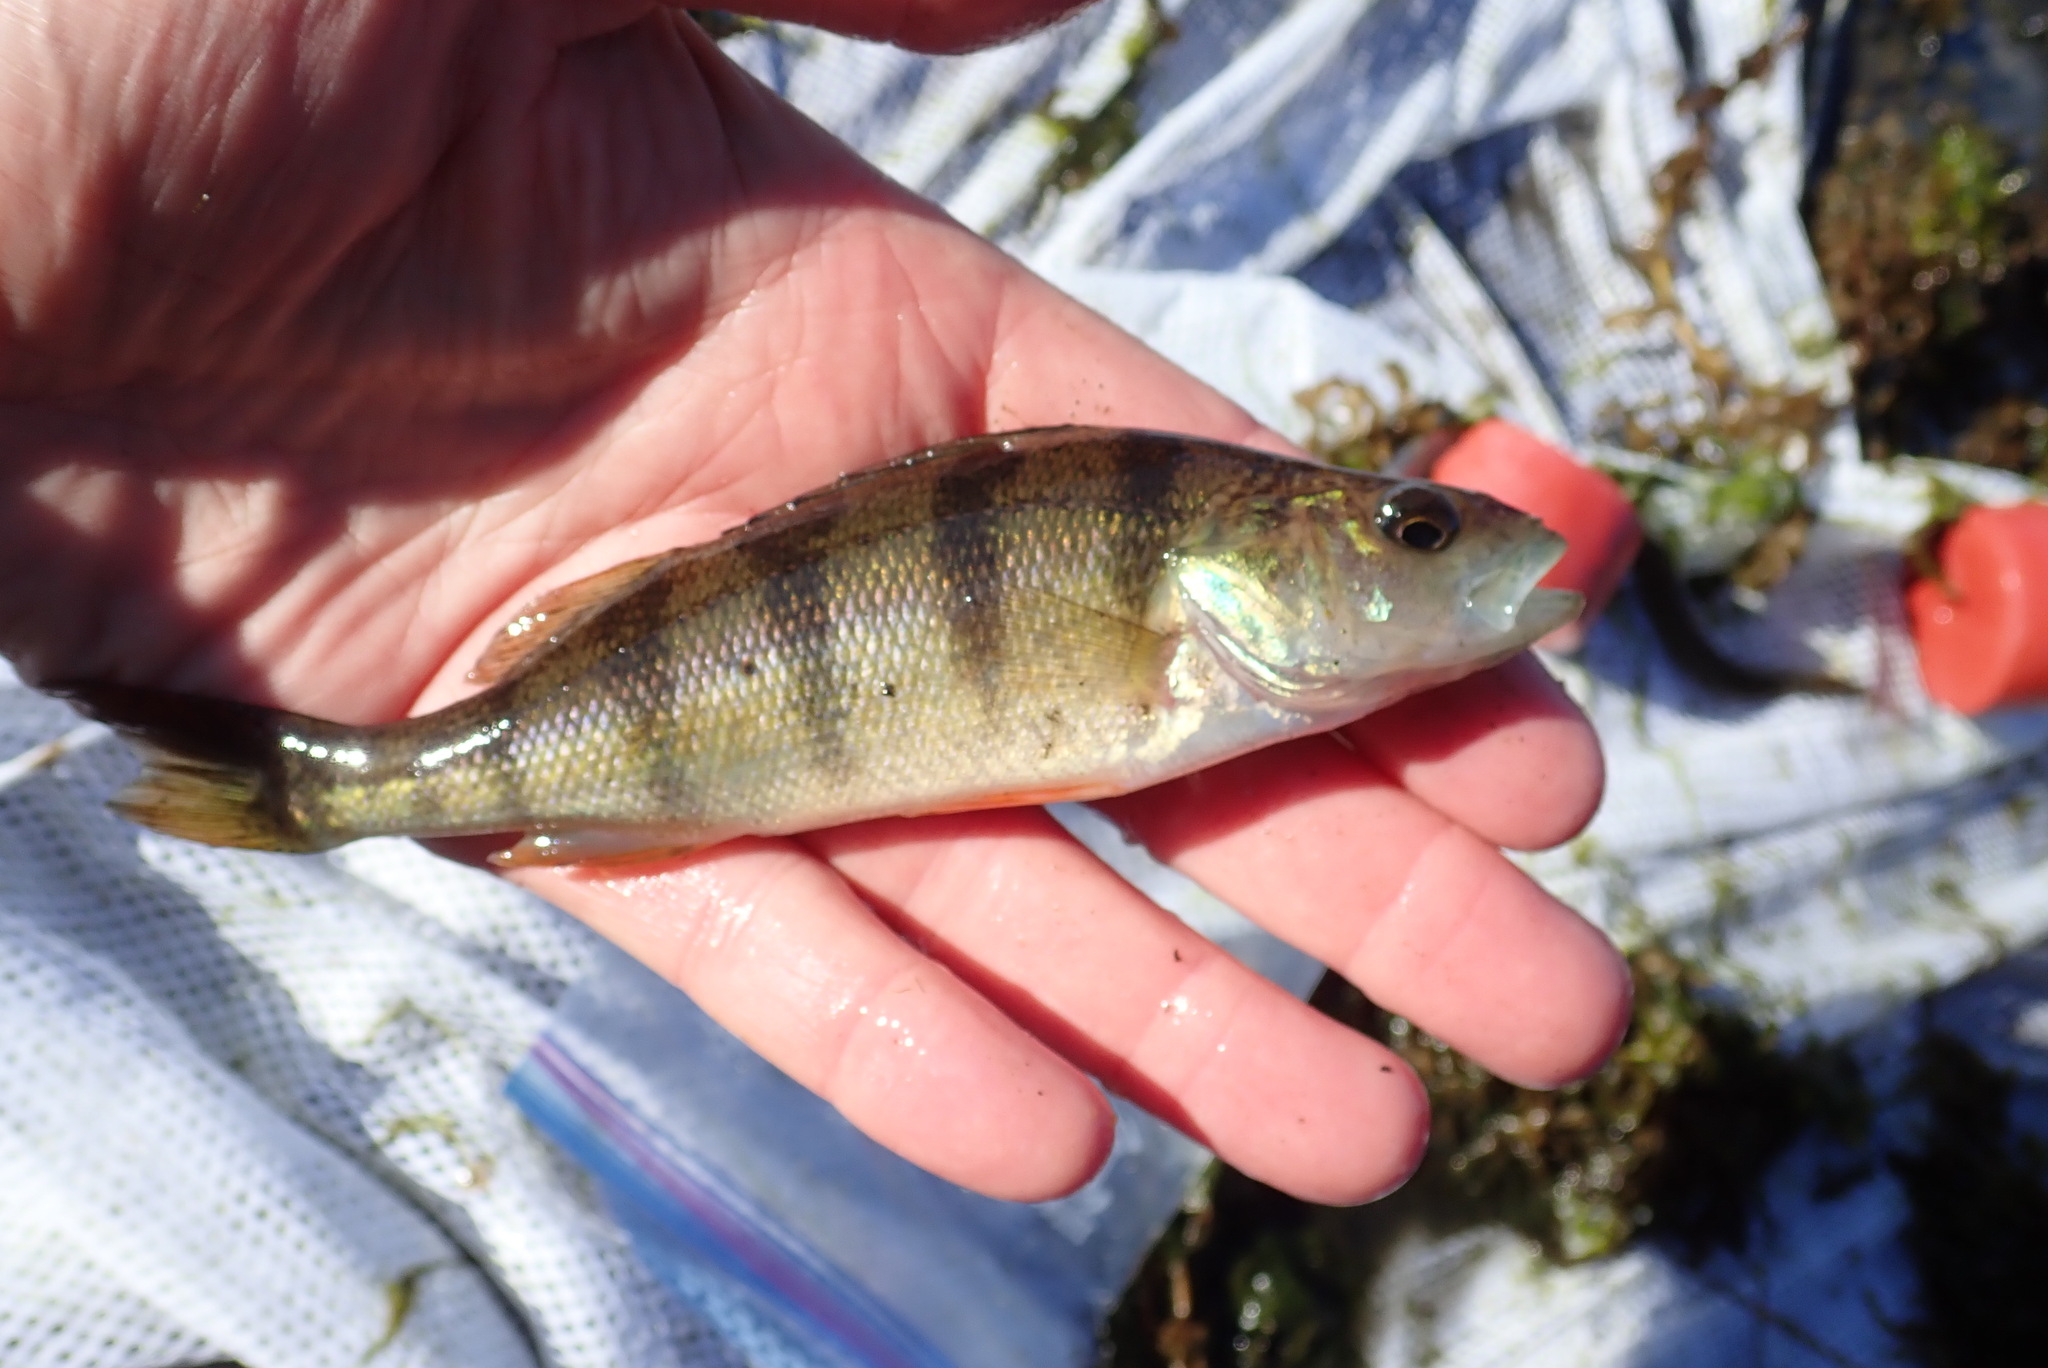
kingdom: Animalia
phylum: Chordata
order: Perciformes
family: Percidae
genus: Perca
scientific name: Perca flavescens
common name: Yellow perch
